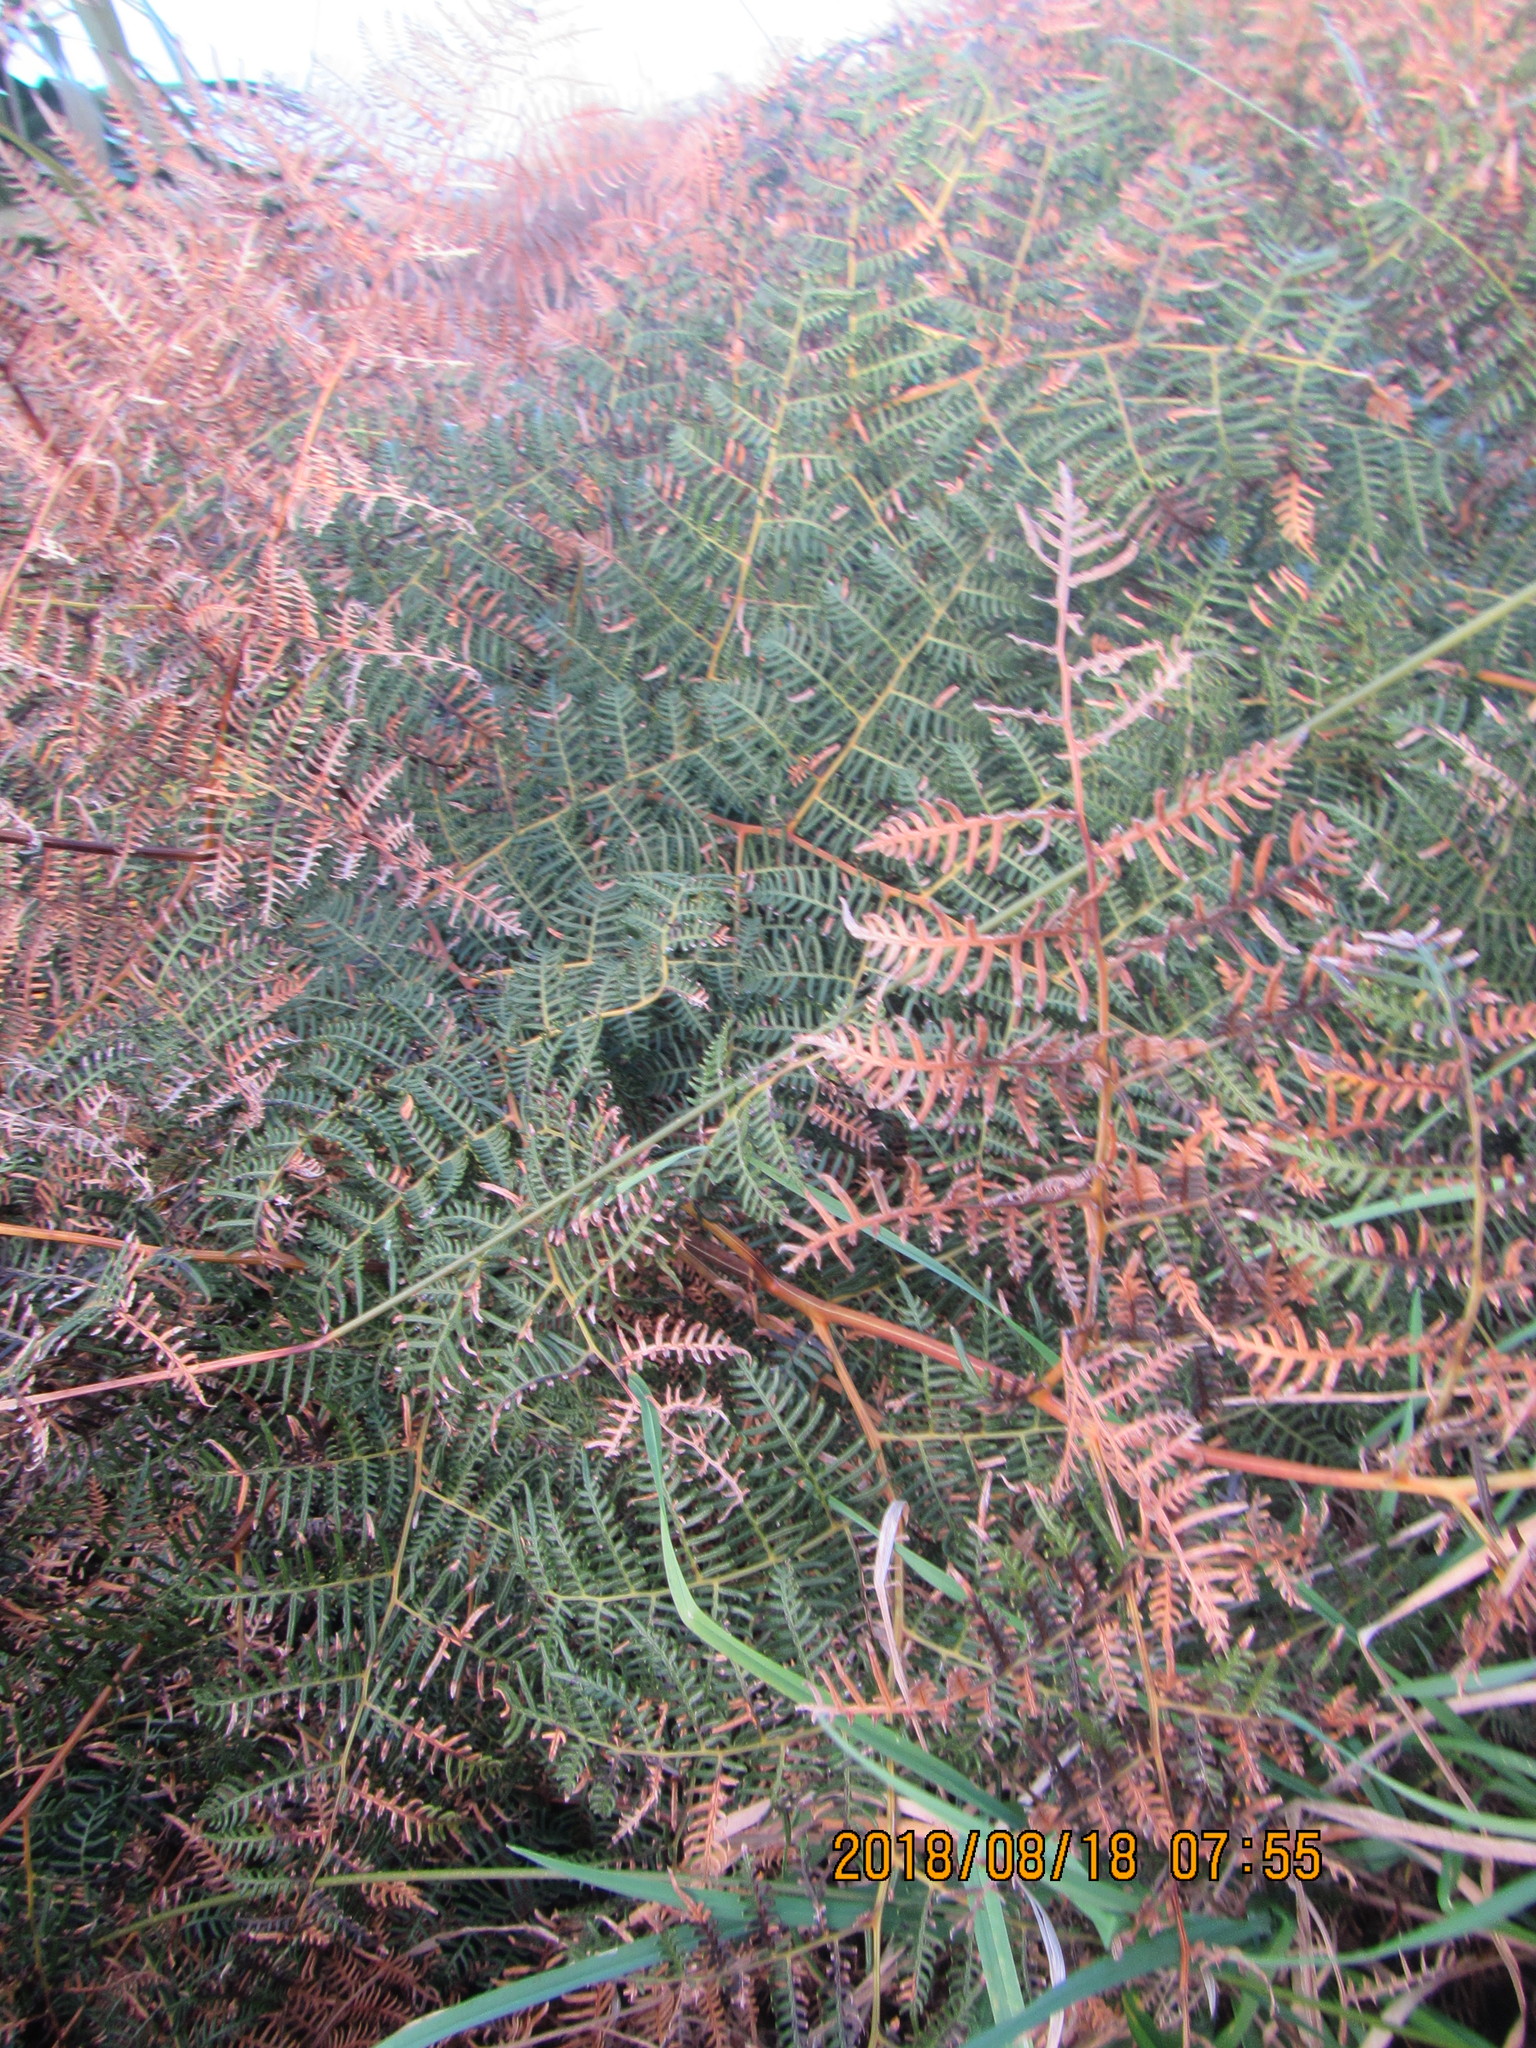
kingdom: Plantae
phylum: Tracheophyta
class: Polypodiopsida
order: Polypodiales
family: Dennstaedtiaceae
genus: Pteridium
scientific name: Pteridium esculentum
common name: Bracken fern
